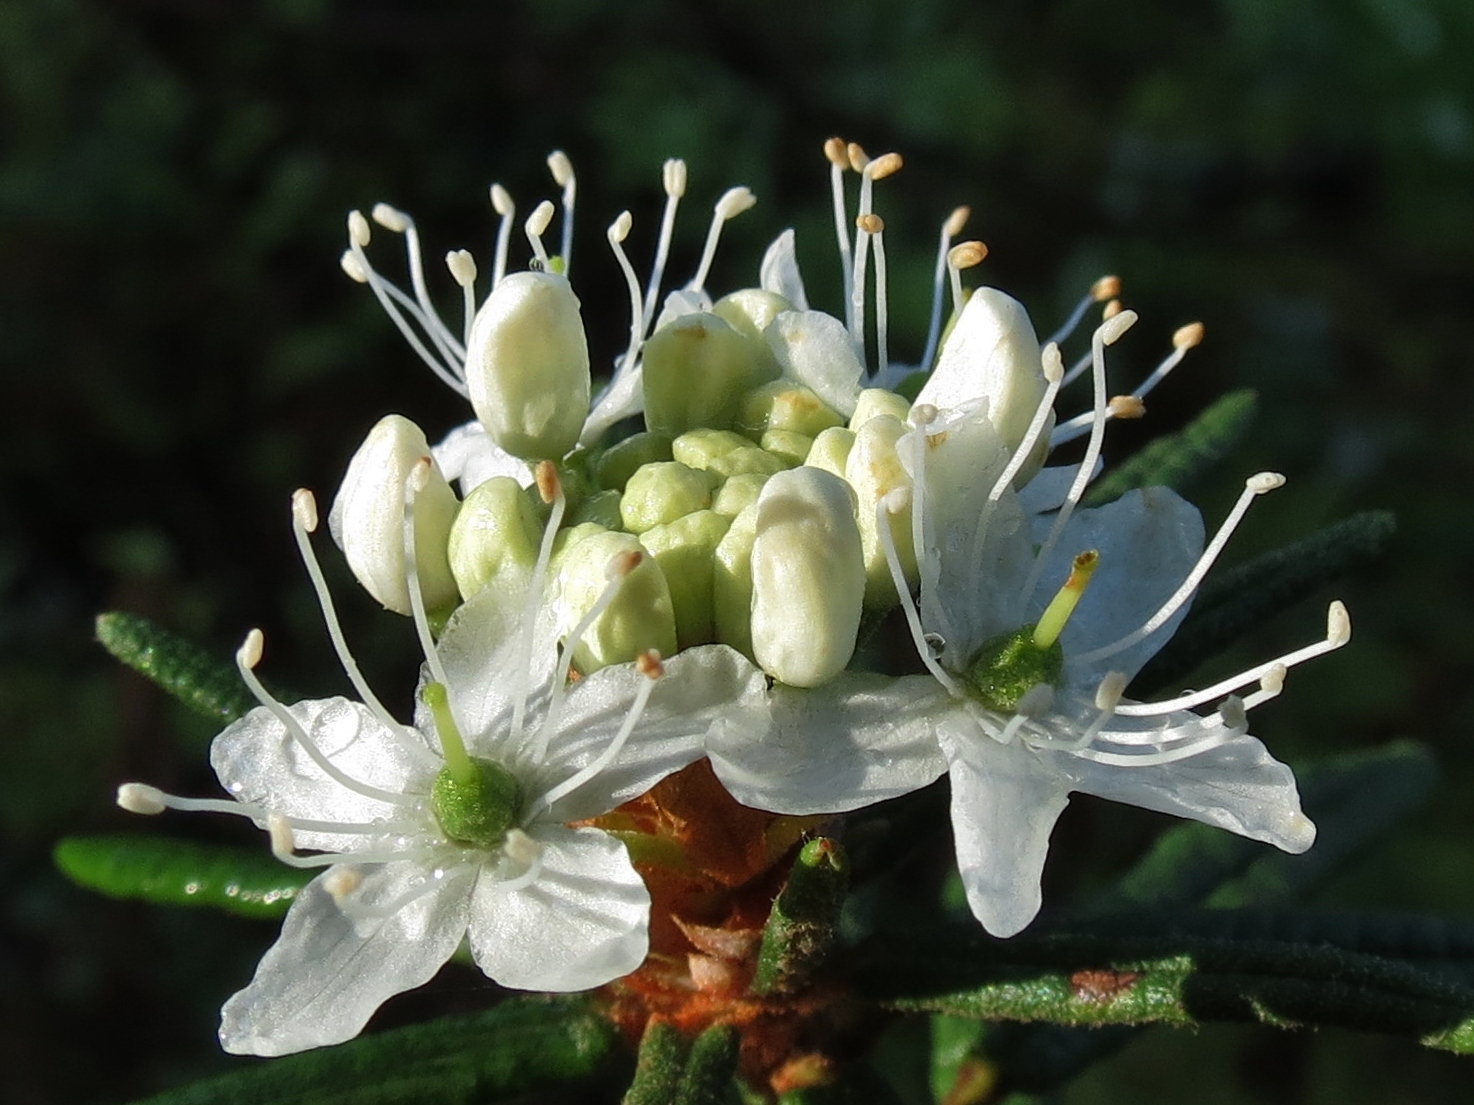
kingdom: Plantae
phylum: Tracheophyta
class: Magnoliopsida
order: Ericales
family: Ericaceae
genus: Rhododendron
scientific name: Rhododendron tomentosum
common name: Marsh labrador tea
